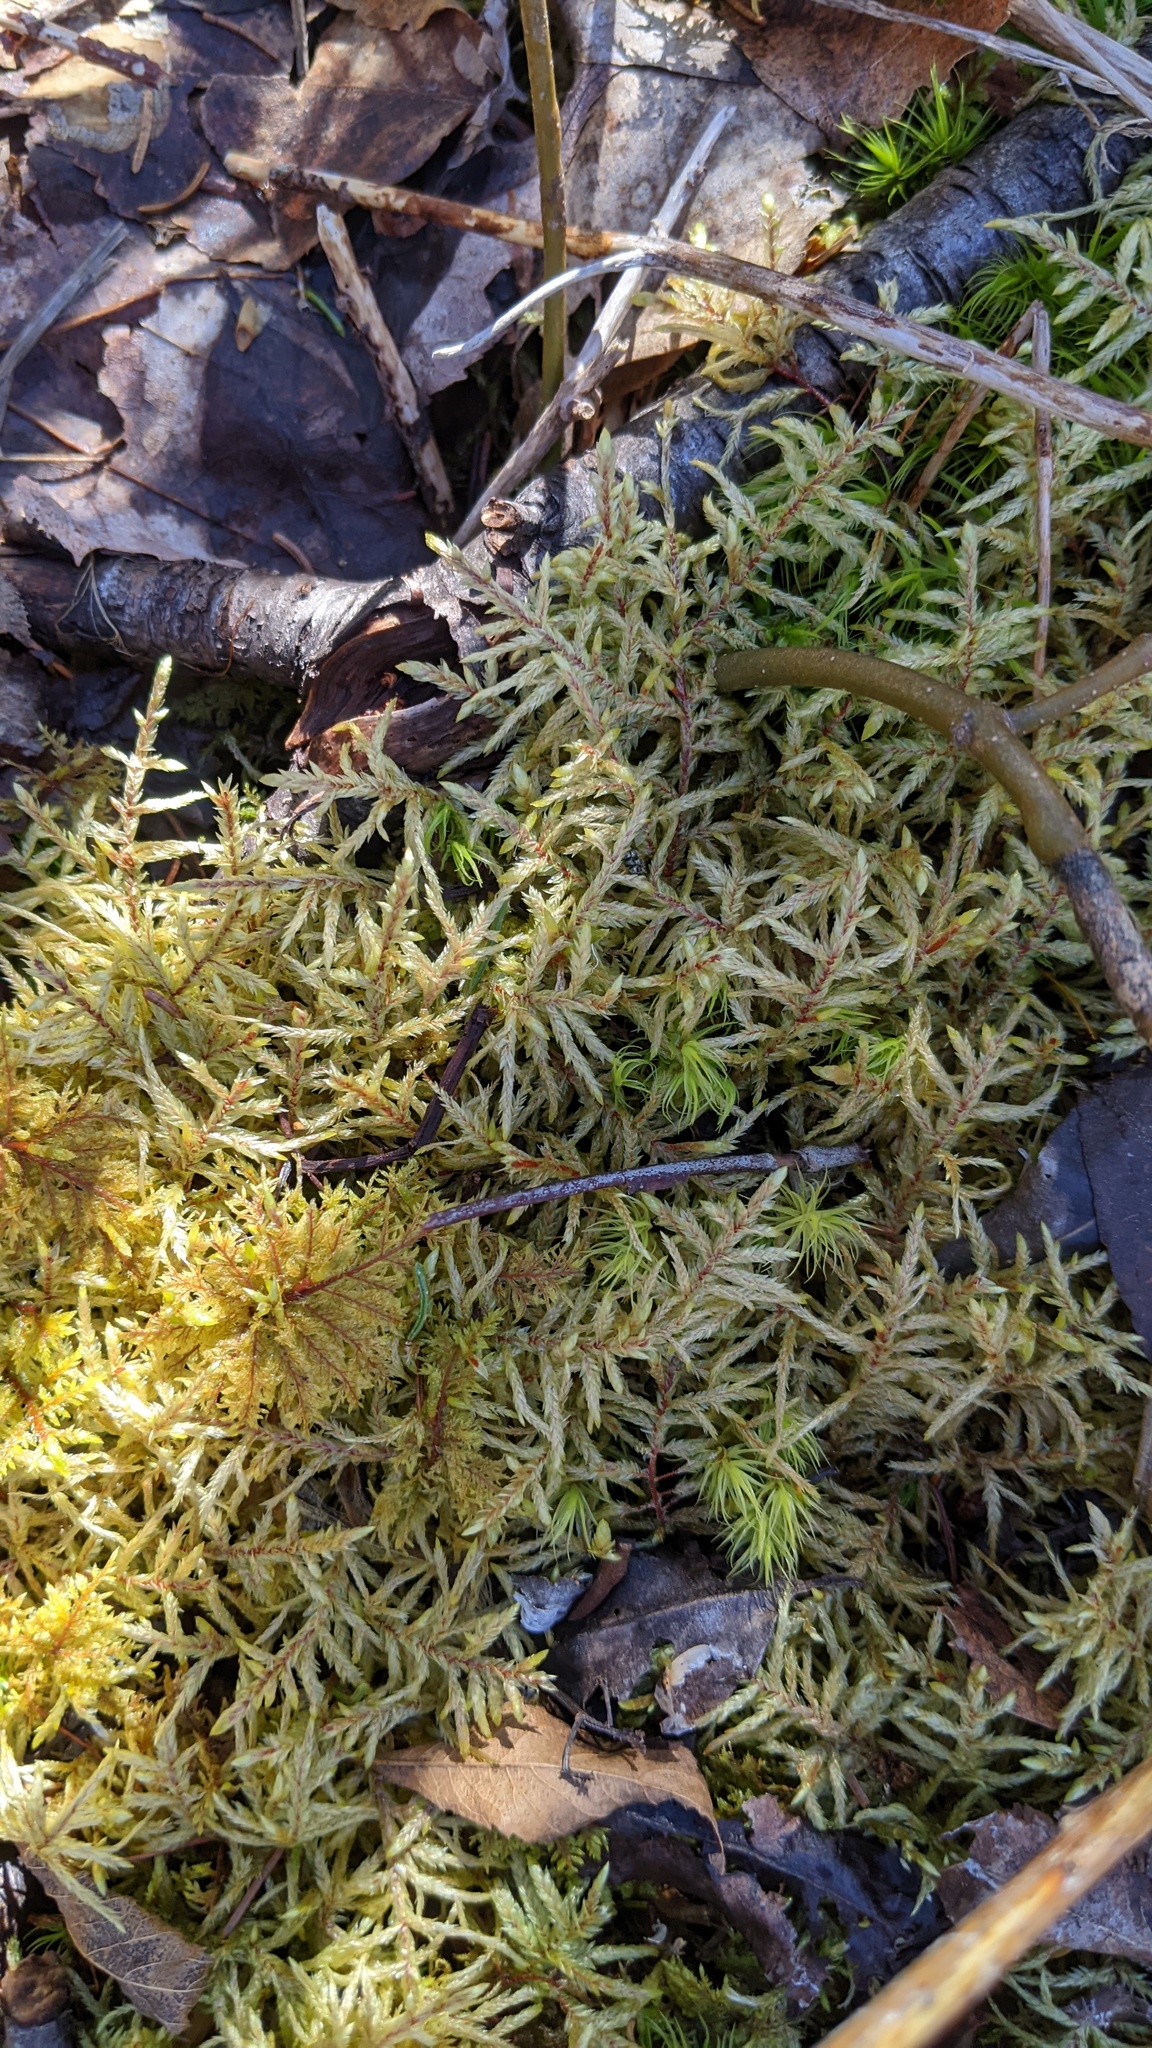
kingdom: Plantae
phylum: Bryophyta
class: Bryopsida
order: Hypnales
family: Hylocomiaceae
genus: Pleurozium
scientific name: Pleurozium schreberi
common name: Red-stemmed feather moss
